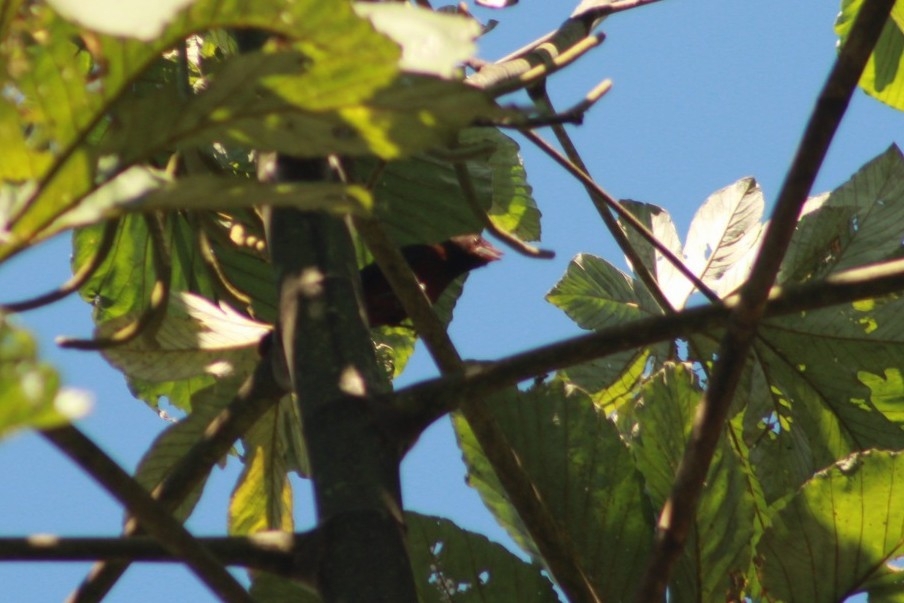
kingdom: Animalia
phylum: Chordata
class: Aves
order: Passeriformes
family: Thraupidae
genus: Ramphocelus
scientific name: Ramphocelus carbo
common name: Silver-beaked tanager
